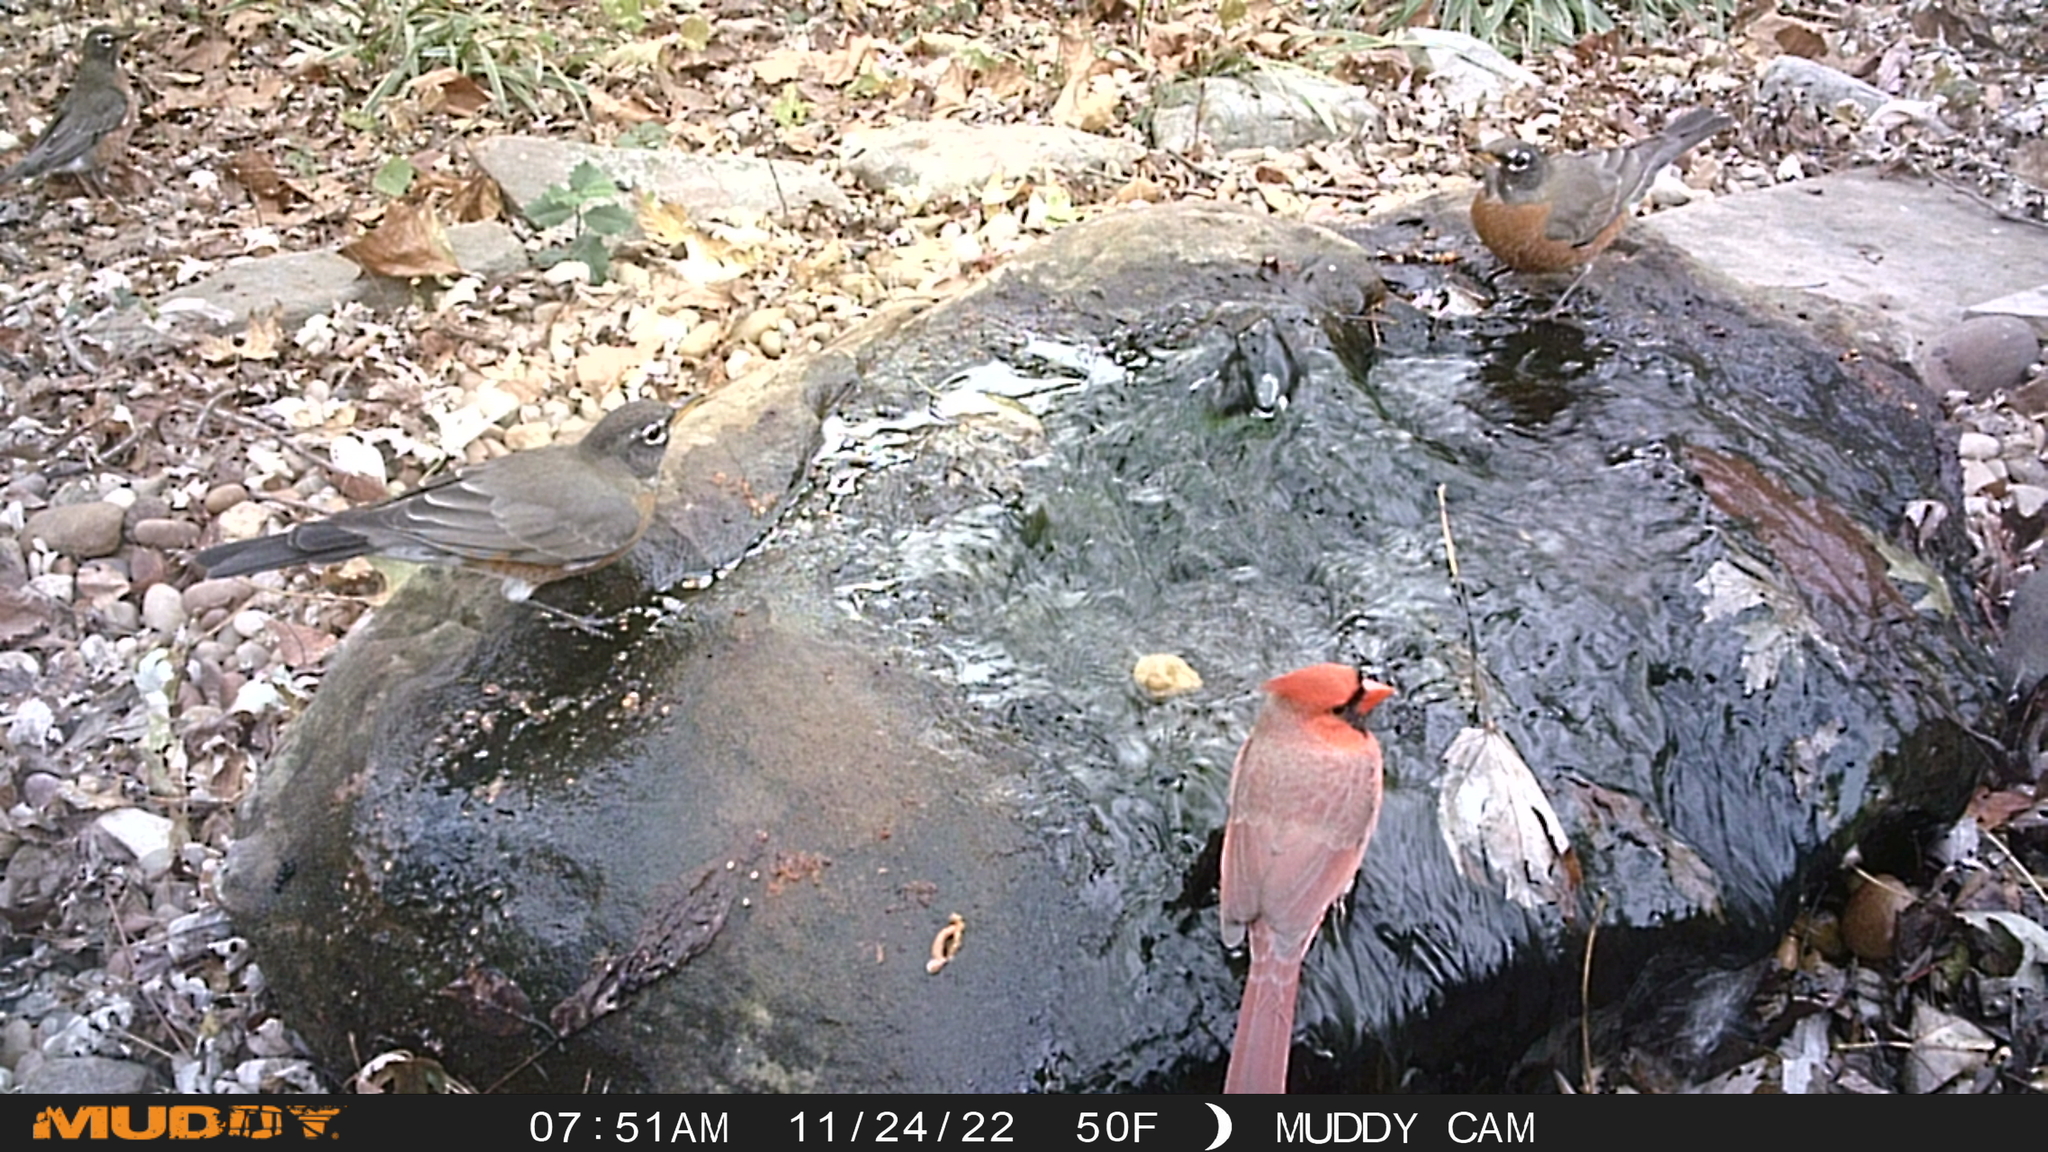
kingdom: Animalia
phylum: Chordata
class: Aves
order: Passeriformes
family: Cardinalidae
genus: Cardinalis
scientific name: Cardinalis cardinalis
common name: Northern cardinal
